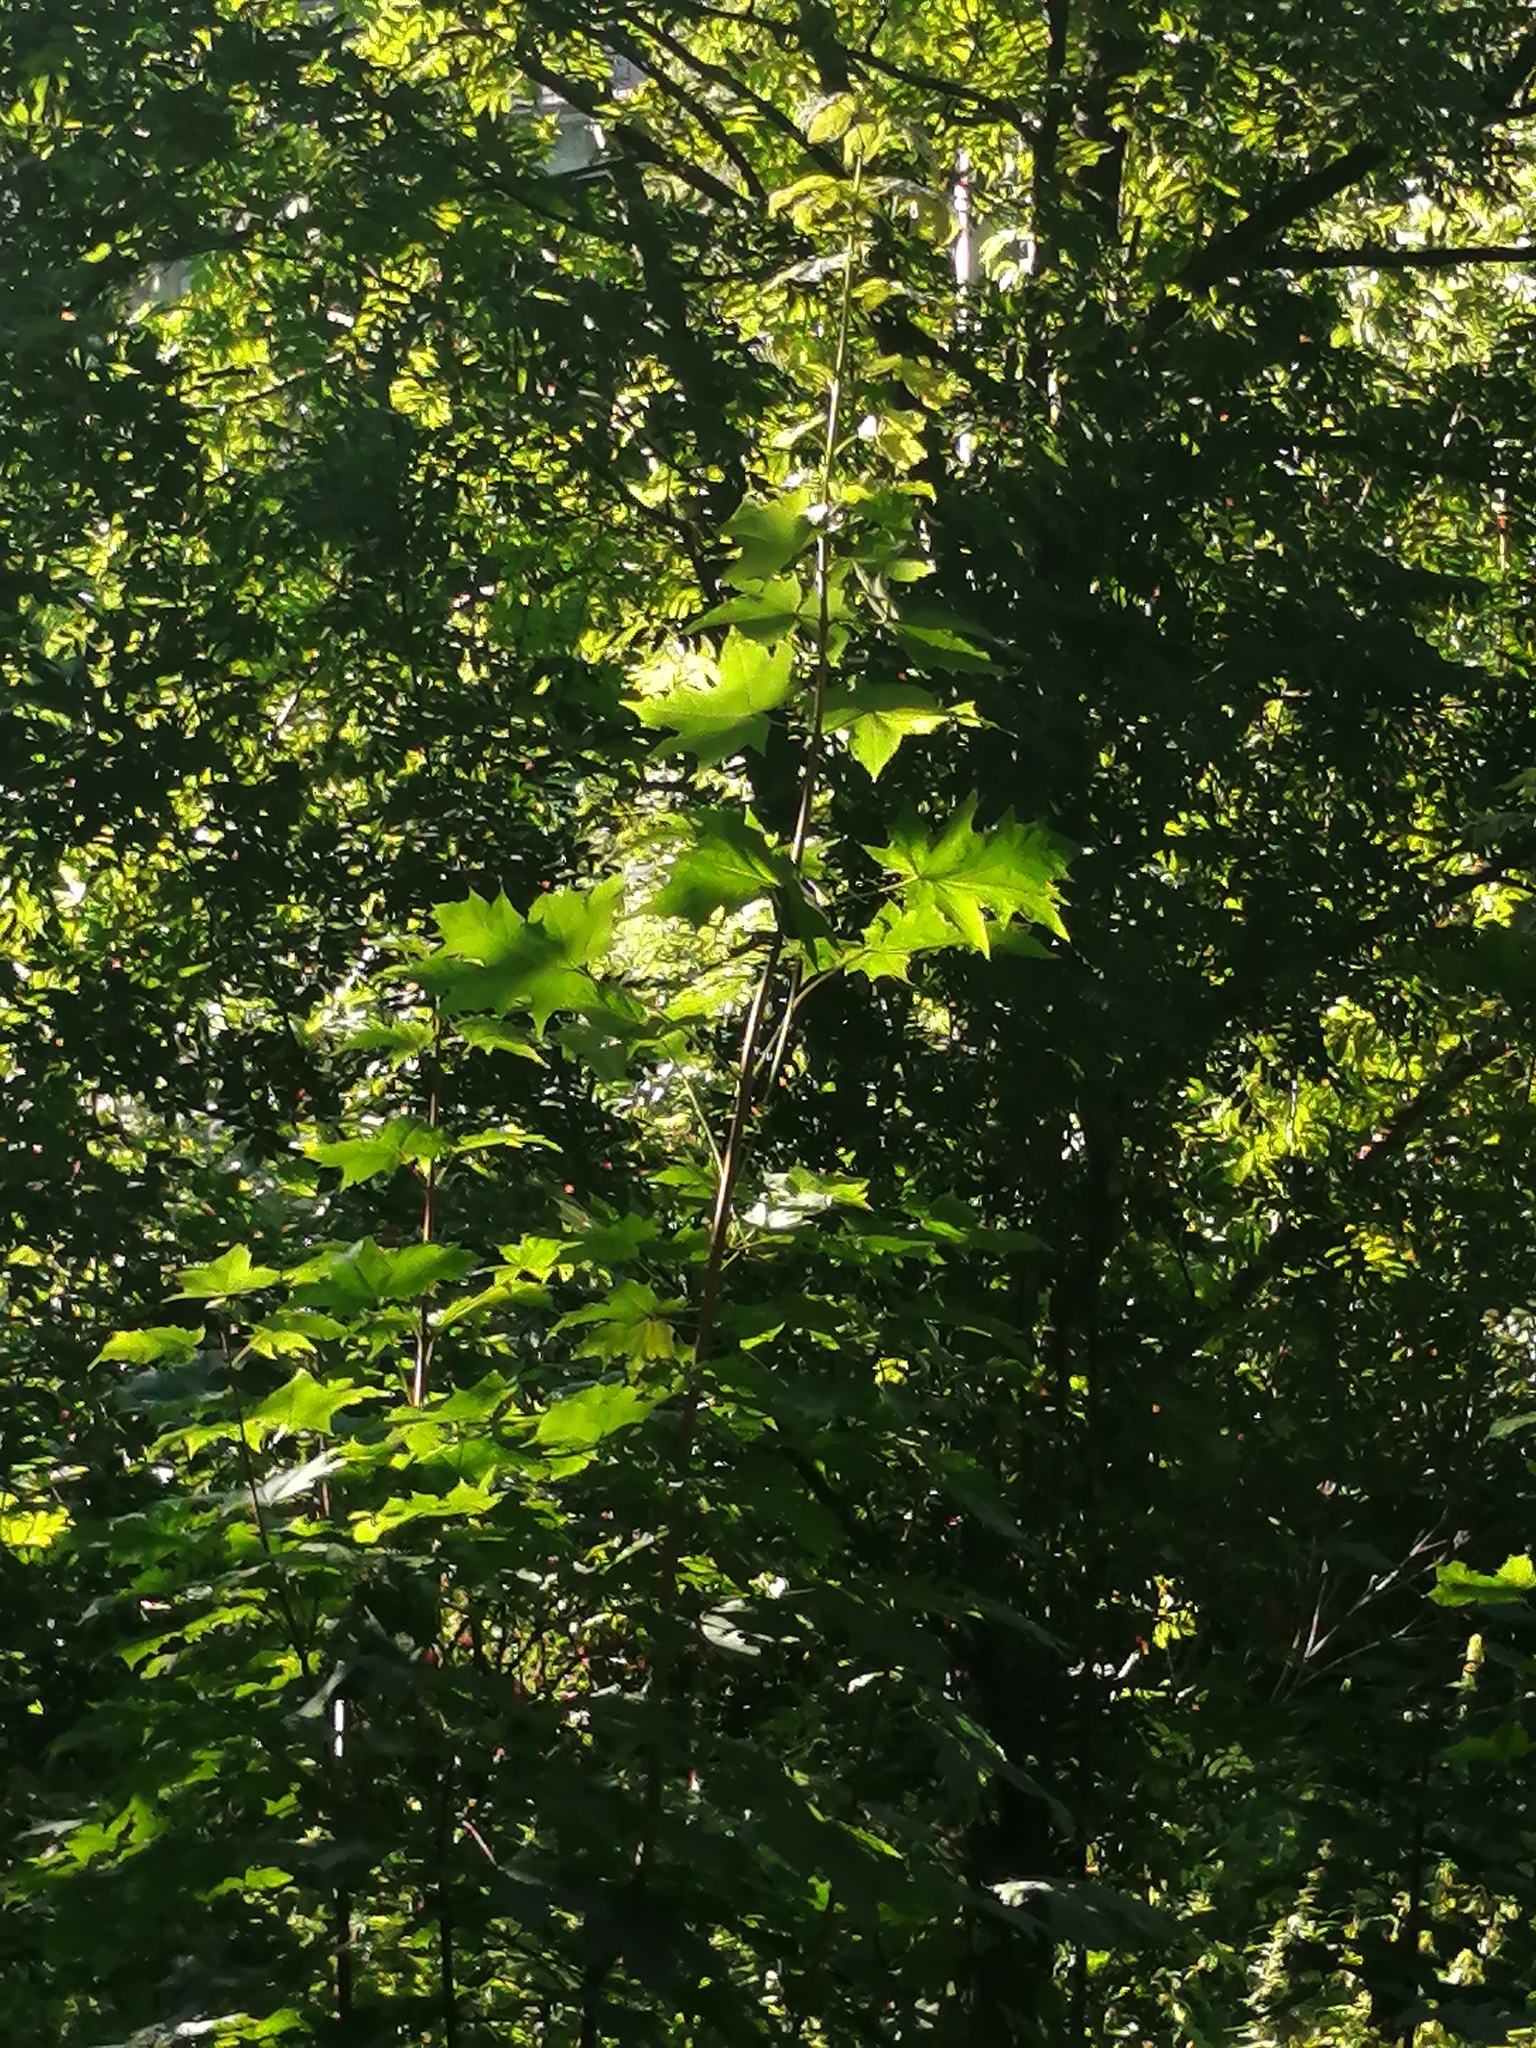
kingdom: Plantae
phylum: Tracheophyta
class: Magnoliopsida
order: Sapindales
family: Sapindaceae
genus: Acer
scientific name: Acer platanoides
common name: Norway maple
